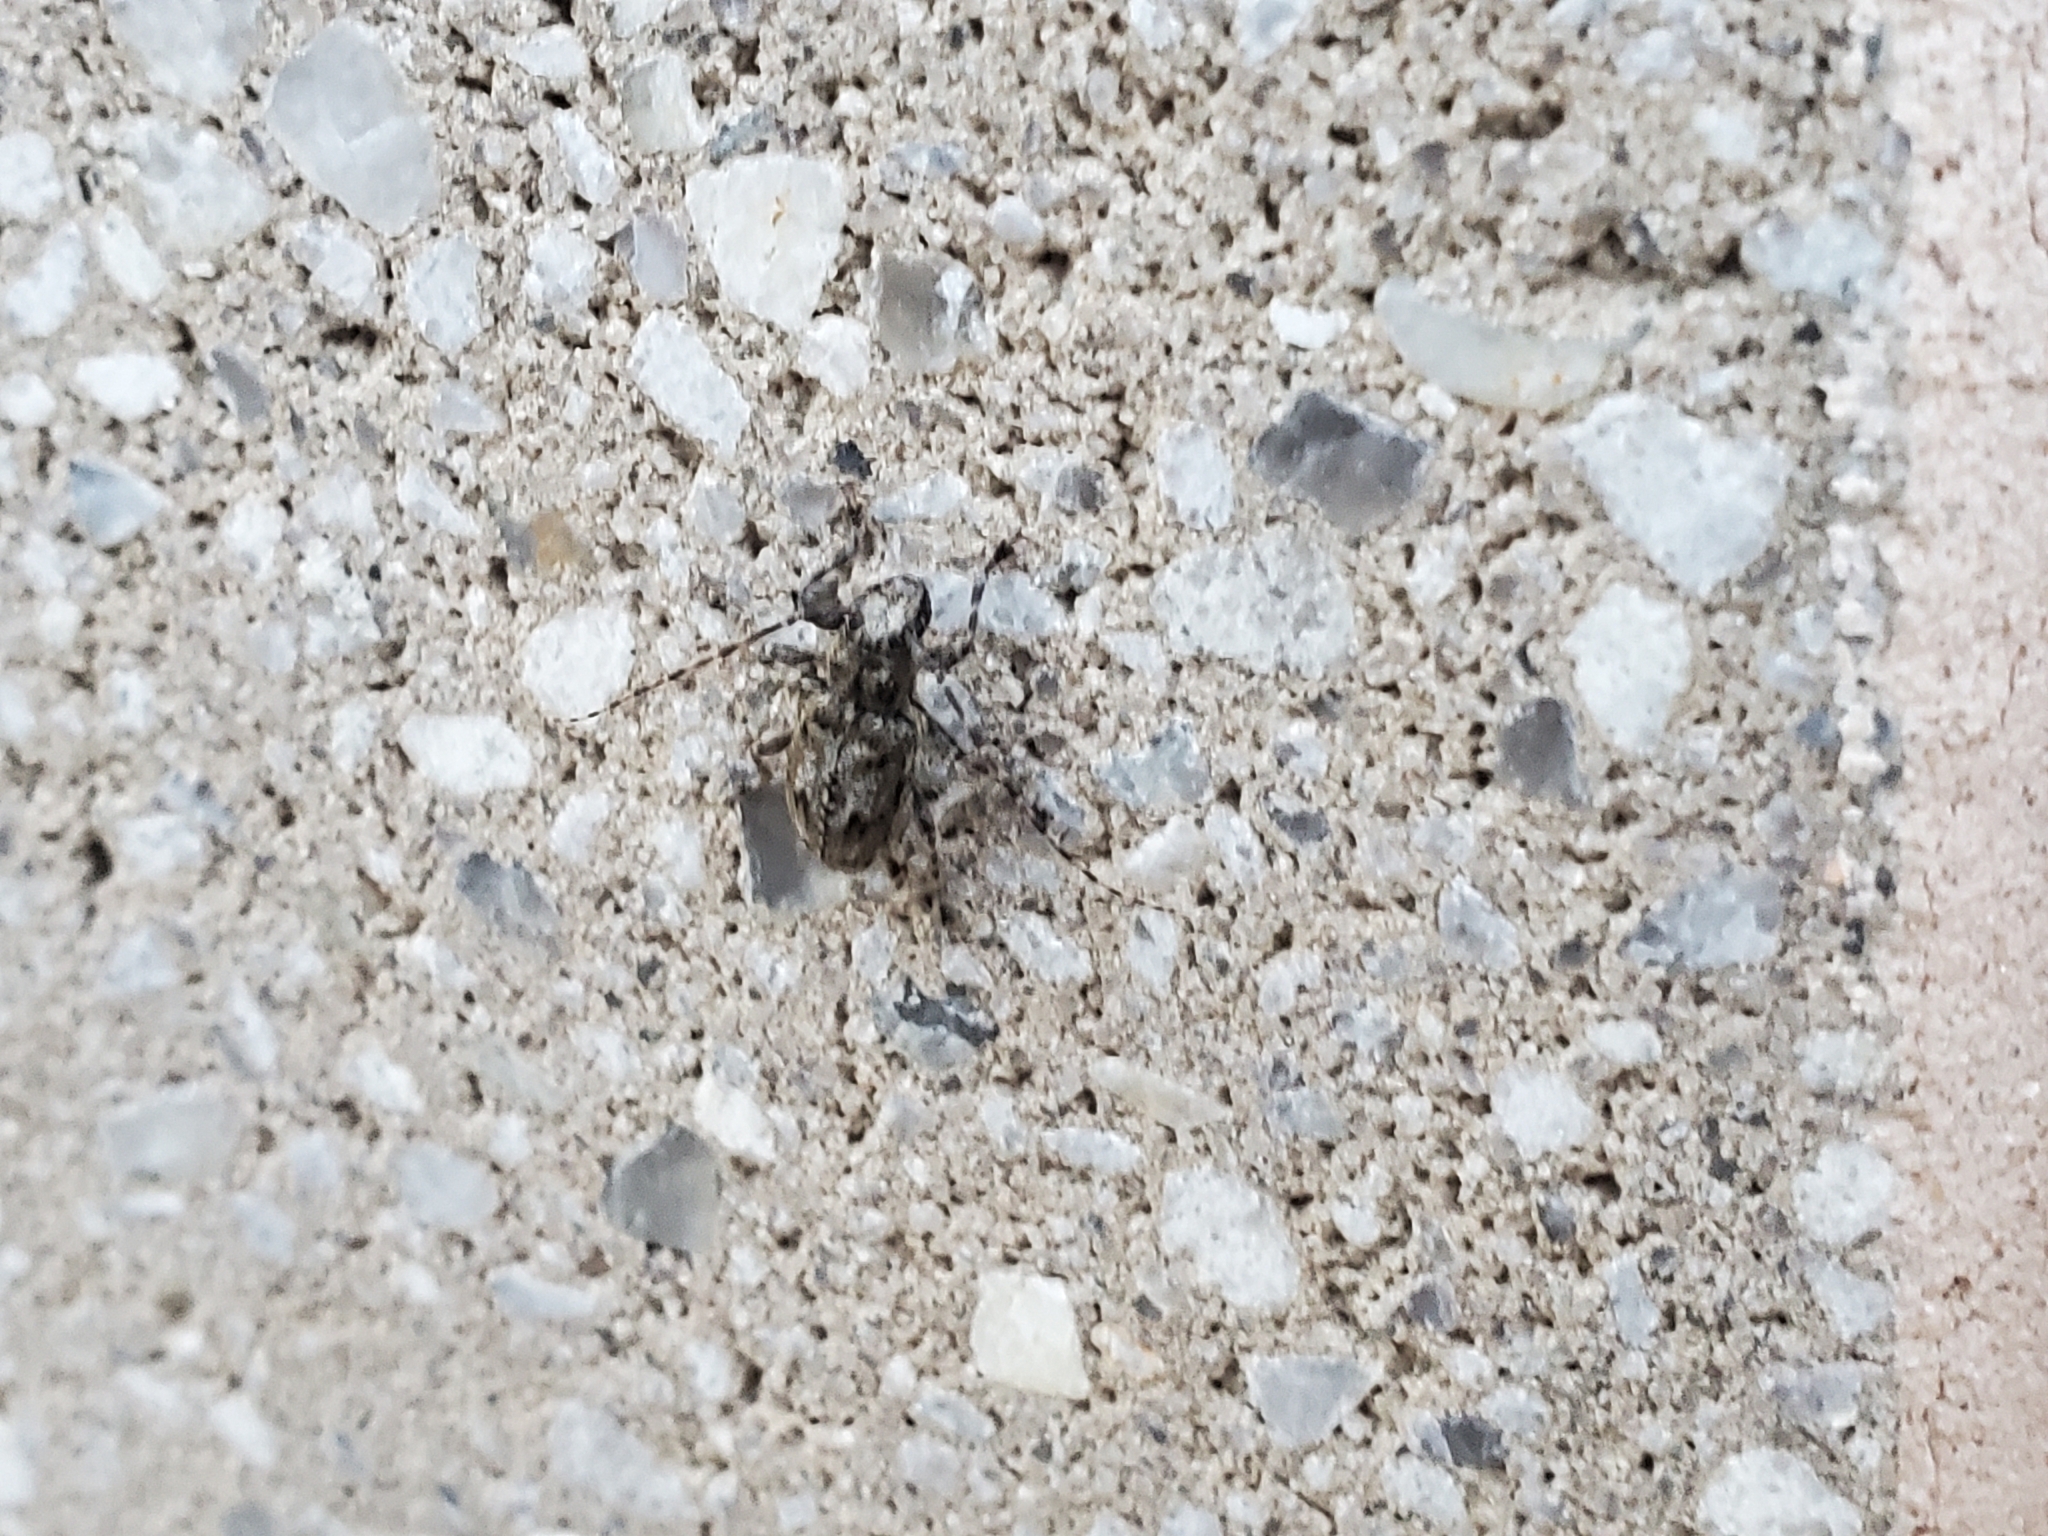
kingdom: Animalia
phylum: Arthropoda
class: Insecta
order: Coleoptera
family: Cerambycidae
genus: Aegomorphus
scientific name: Aegomorphus modestus
